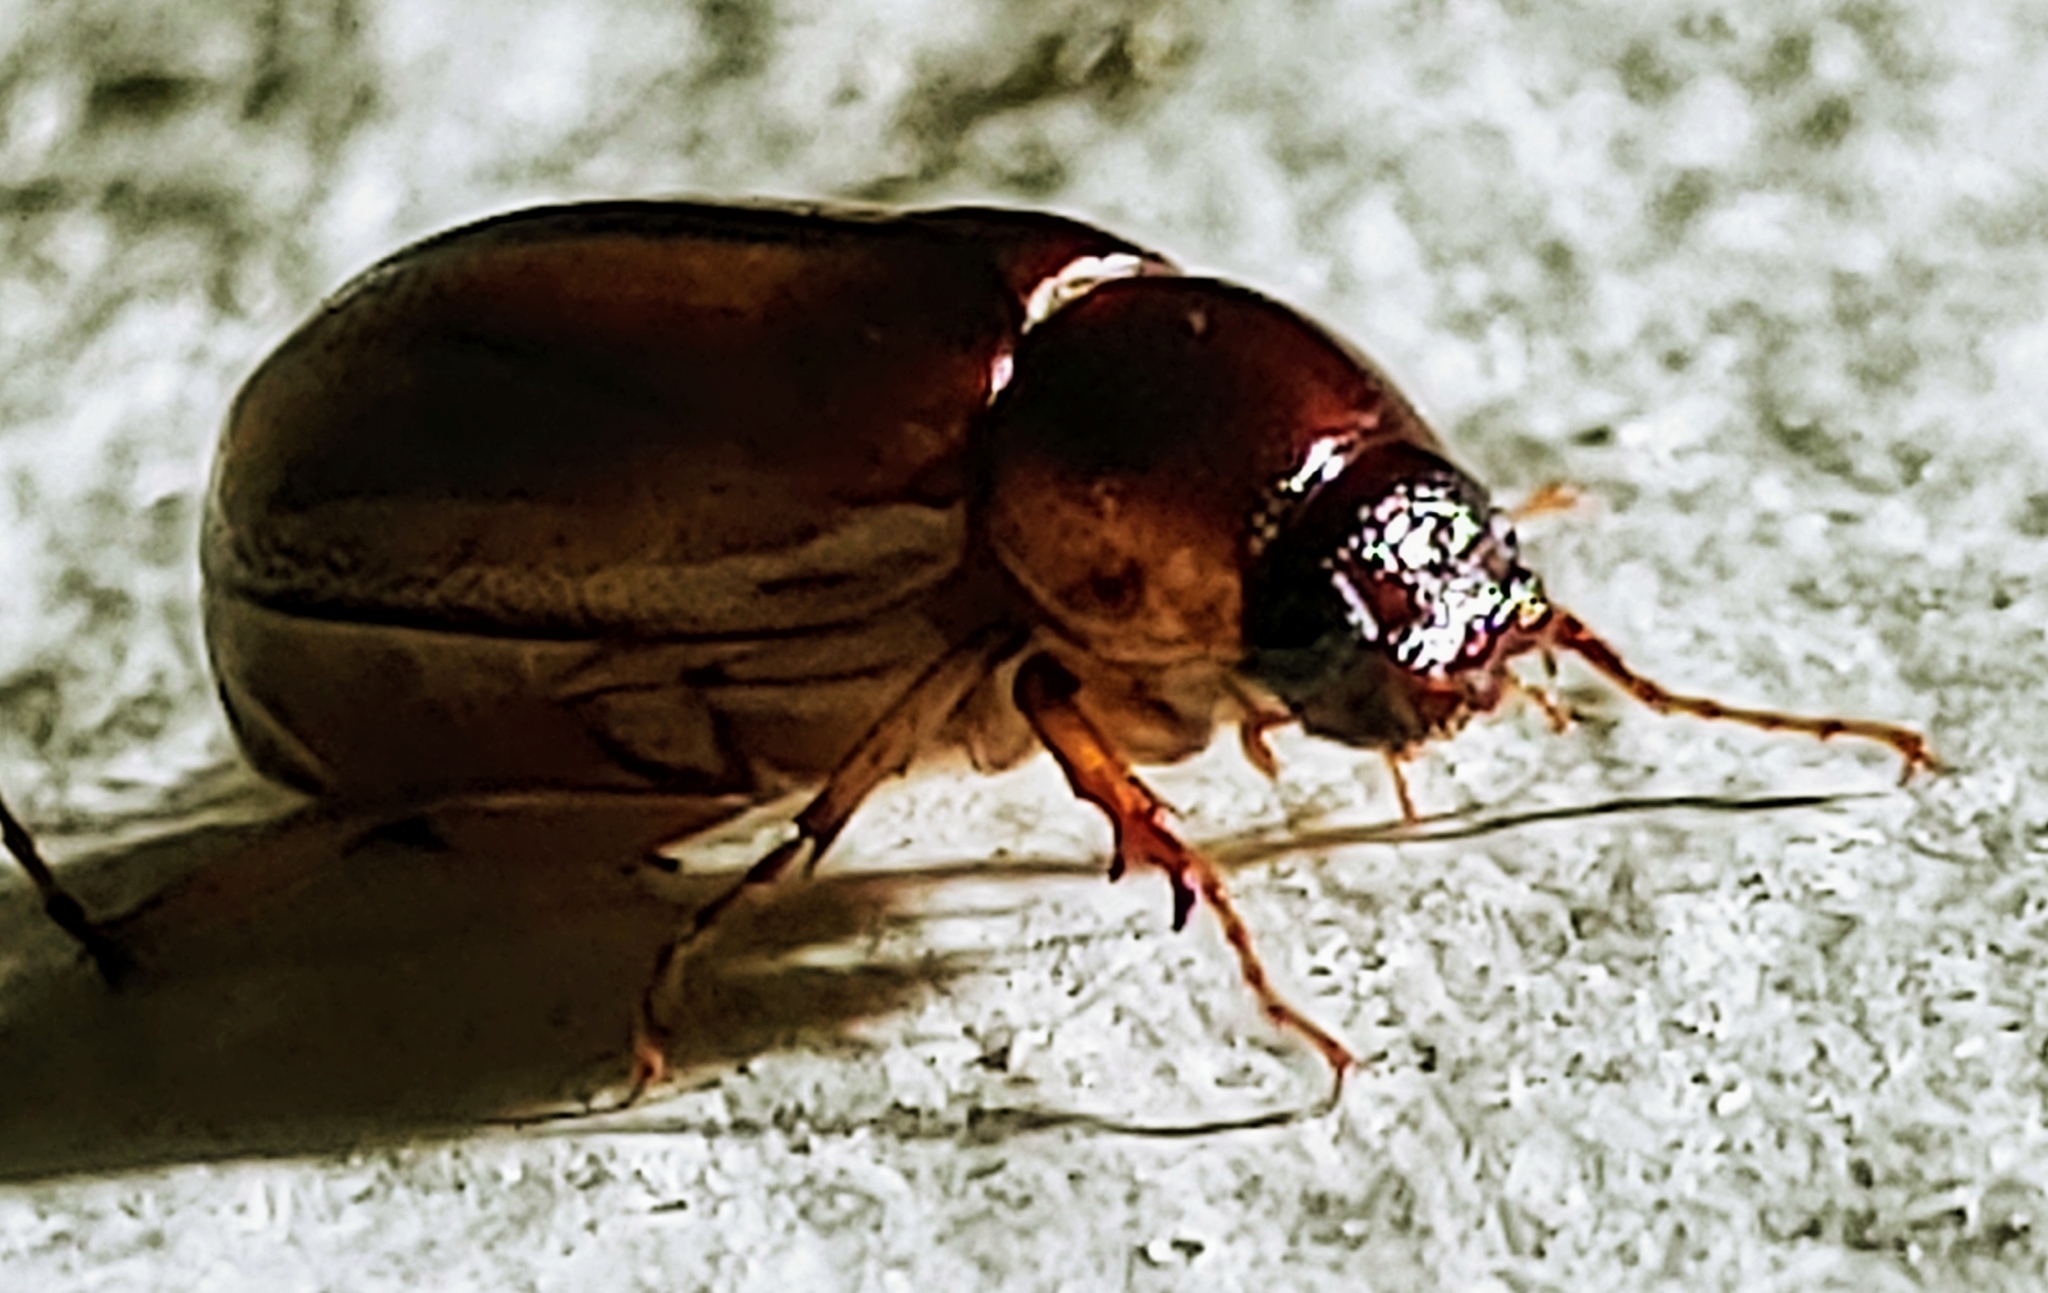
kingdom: Animalia
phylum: Arthropoda
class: Insecta
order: Coleoptera
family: Scarabaeidae
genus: Phyllophaga
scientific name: Phyllophaga bruneri
